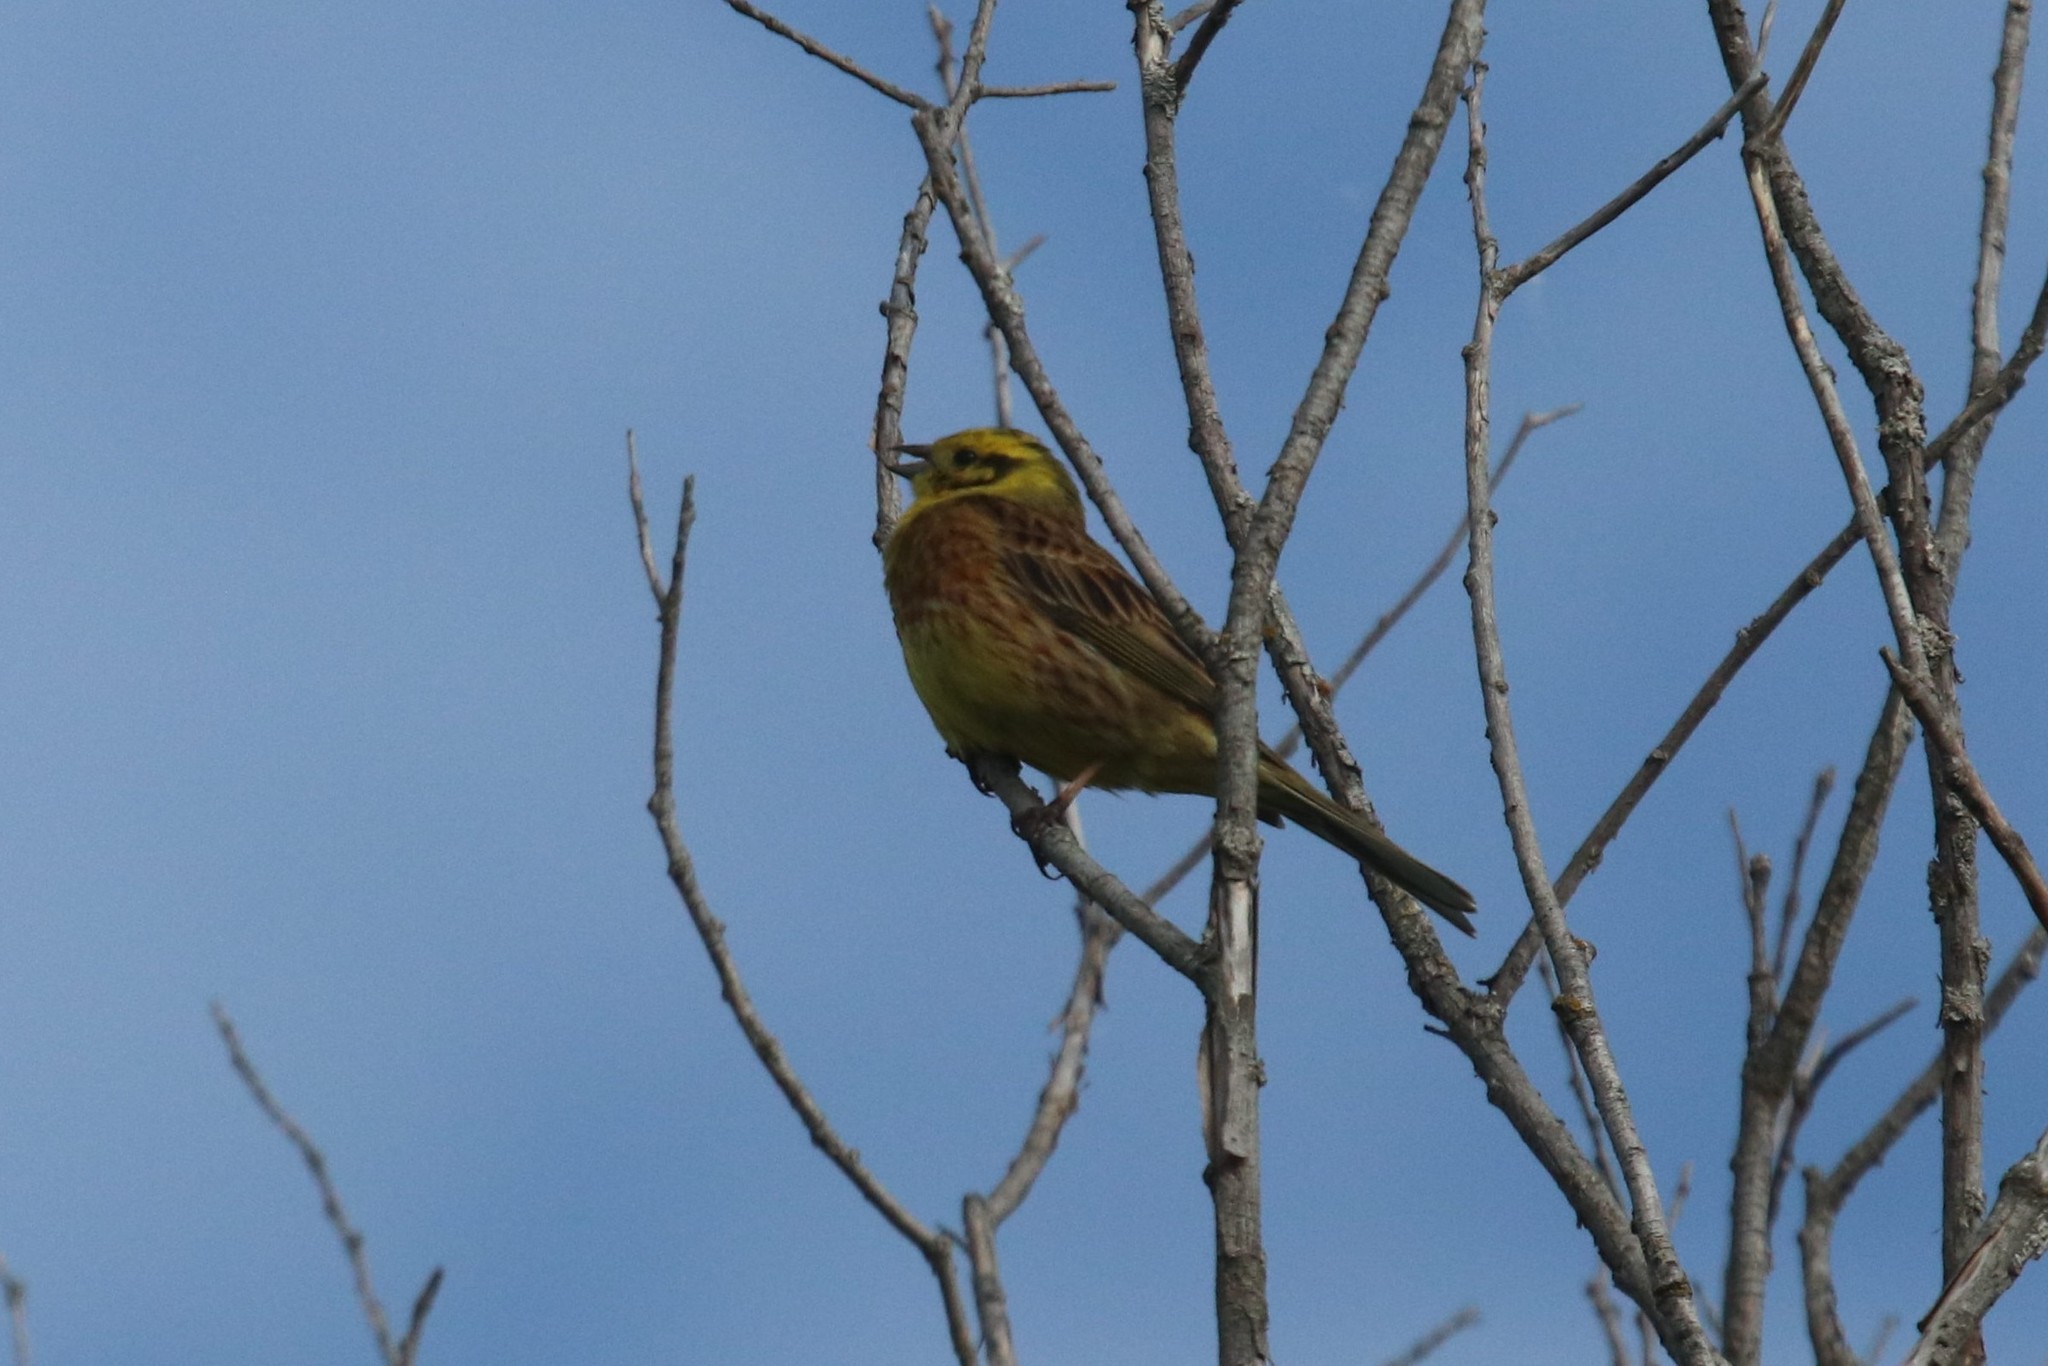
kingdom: Animalia
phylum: Chordata
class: Aves
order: Passeriformes
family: Emberizidae
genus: Emberiza
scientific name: Emberiza citrinella
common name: Yellowhammer
